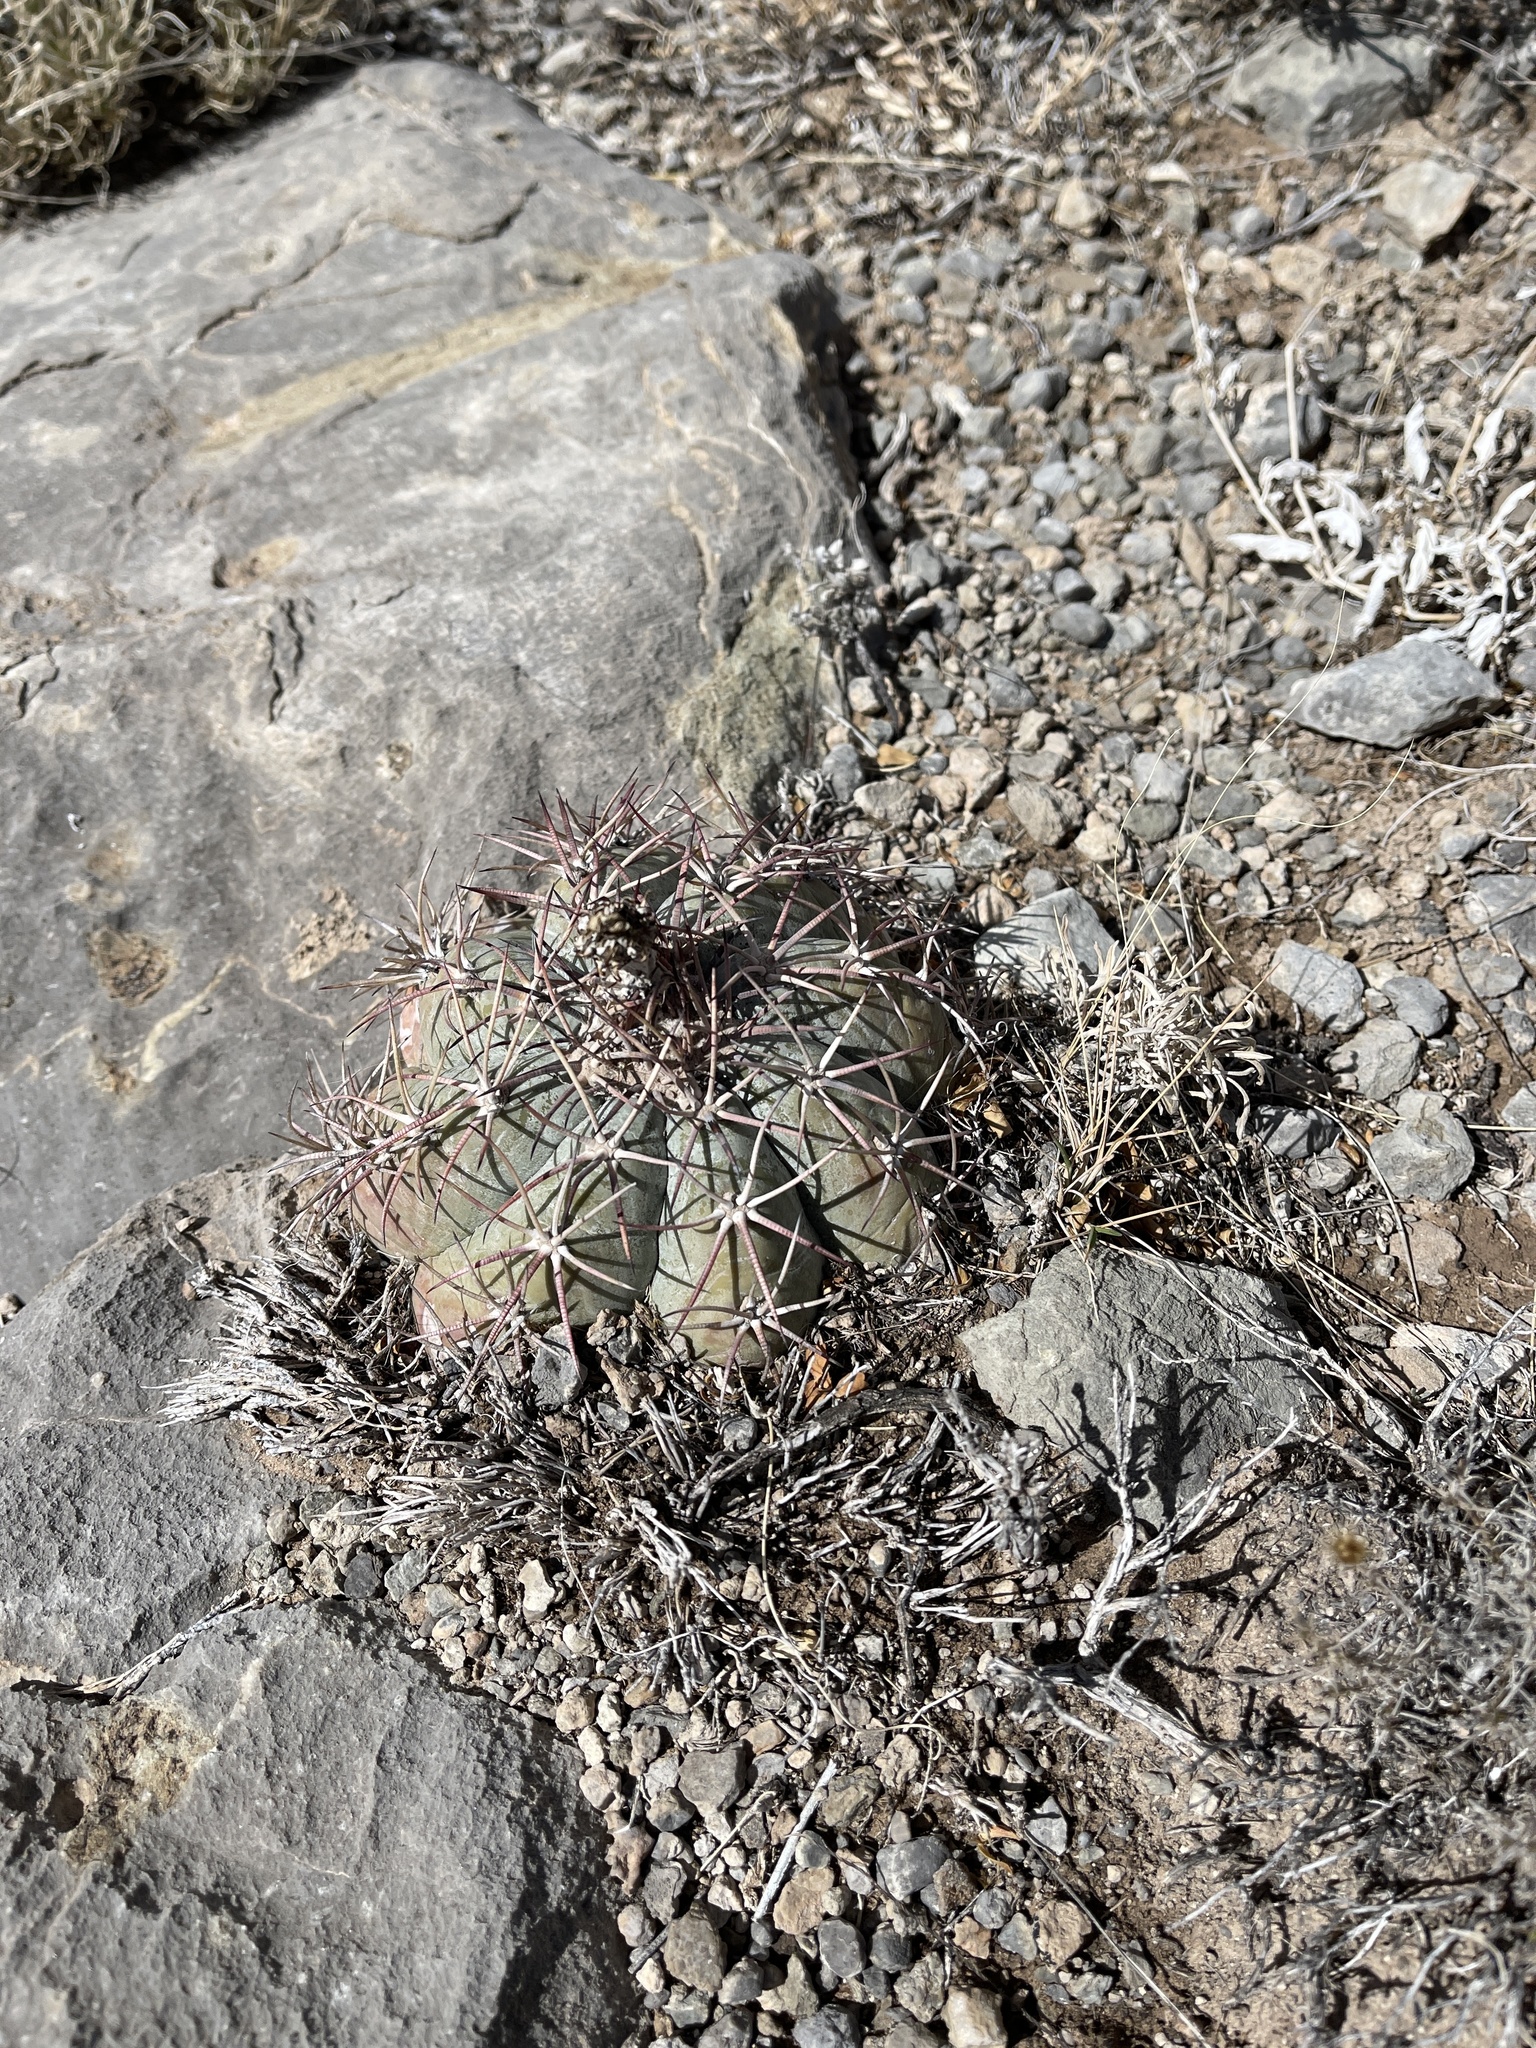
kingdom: Plantae
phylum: Tracheophyta
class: Magnoliopsida
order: Caryophyllales
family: Cactaceae
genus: Echinocactus
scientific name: Echinocactus horizonthalonius
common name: Devilshead
